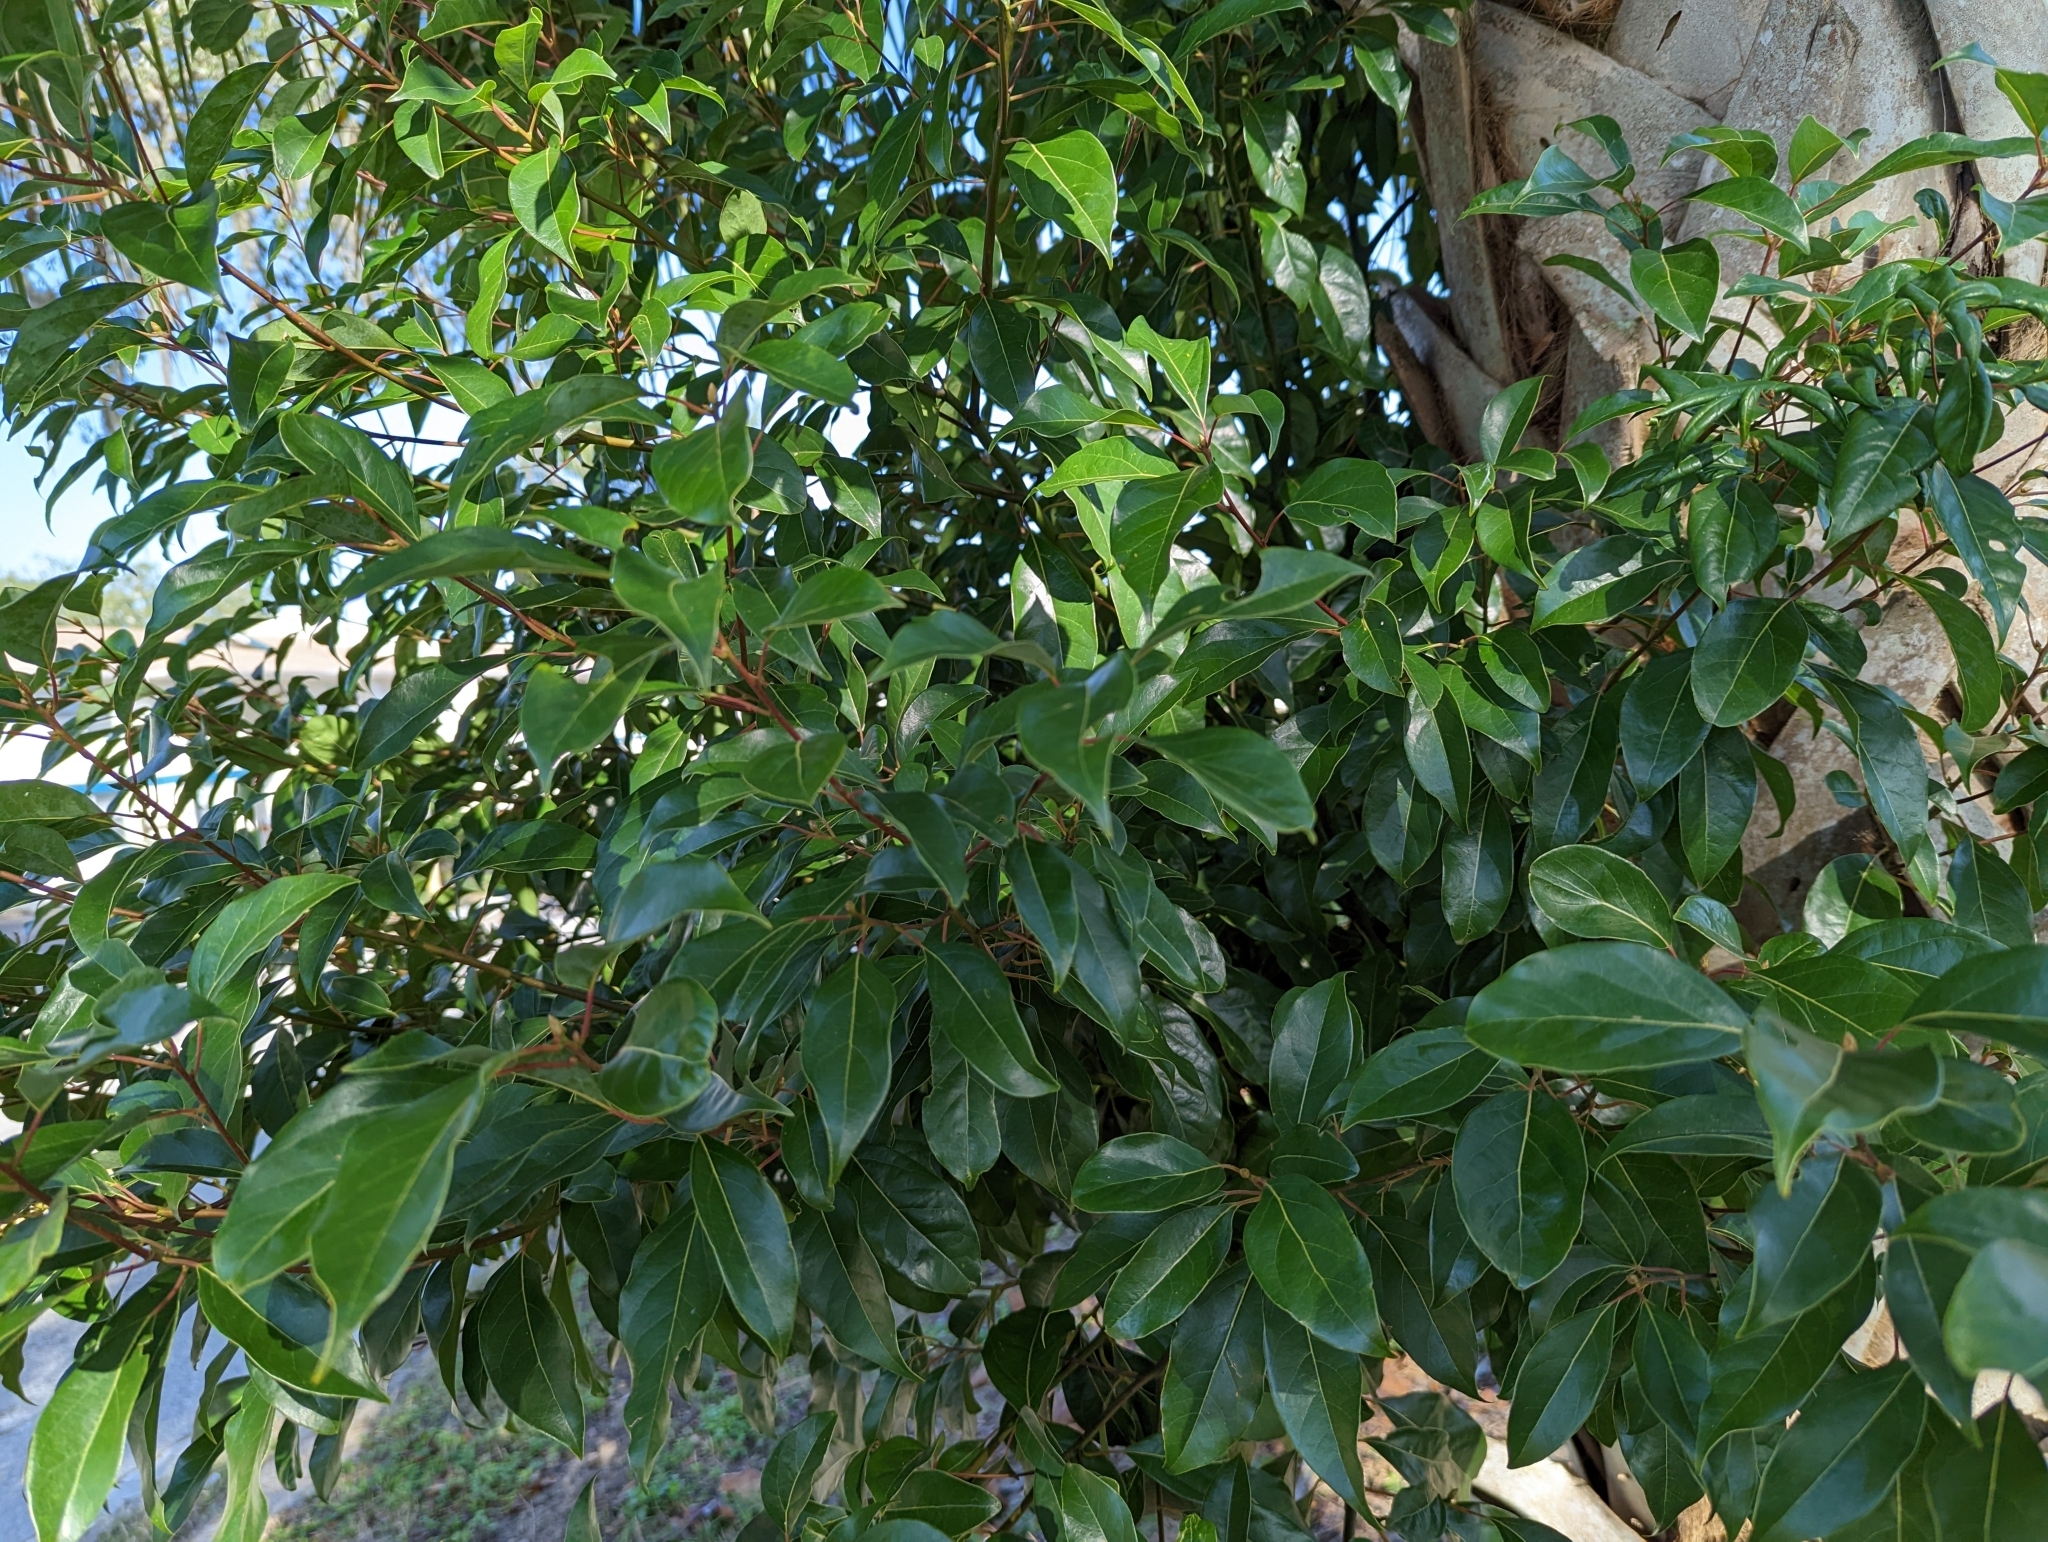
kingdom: Plantae
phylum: Tracheophyta
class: Magnoliopsida
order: Laurales
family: Lauraceae
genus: Cinnamomum
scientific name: Cinnamomum camphora
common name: Camphortree
